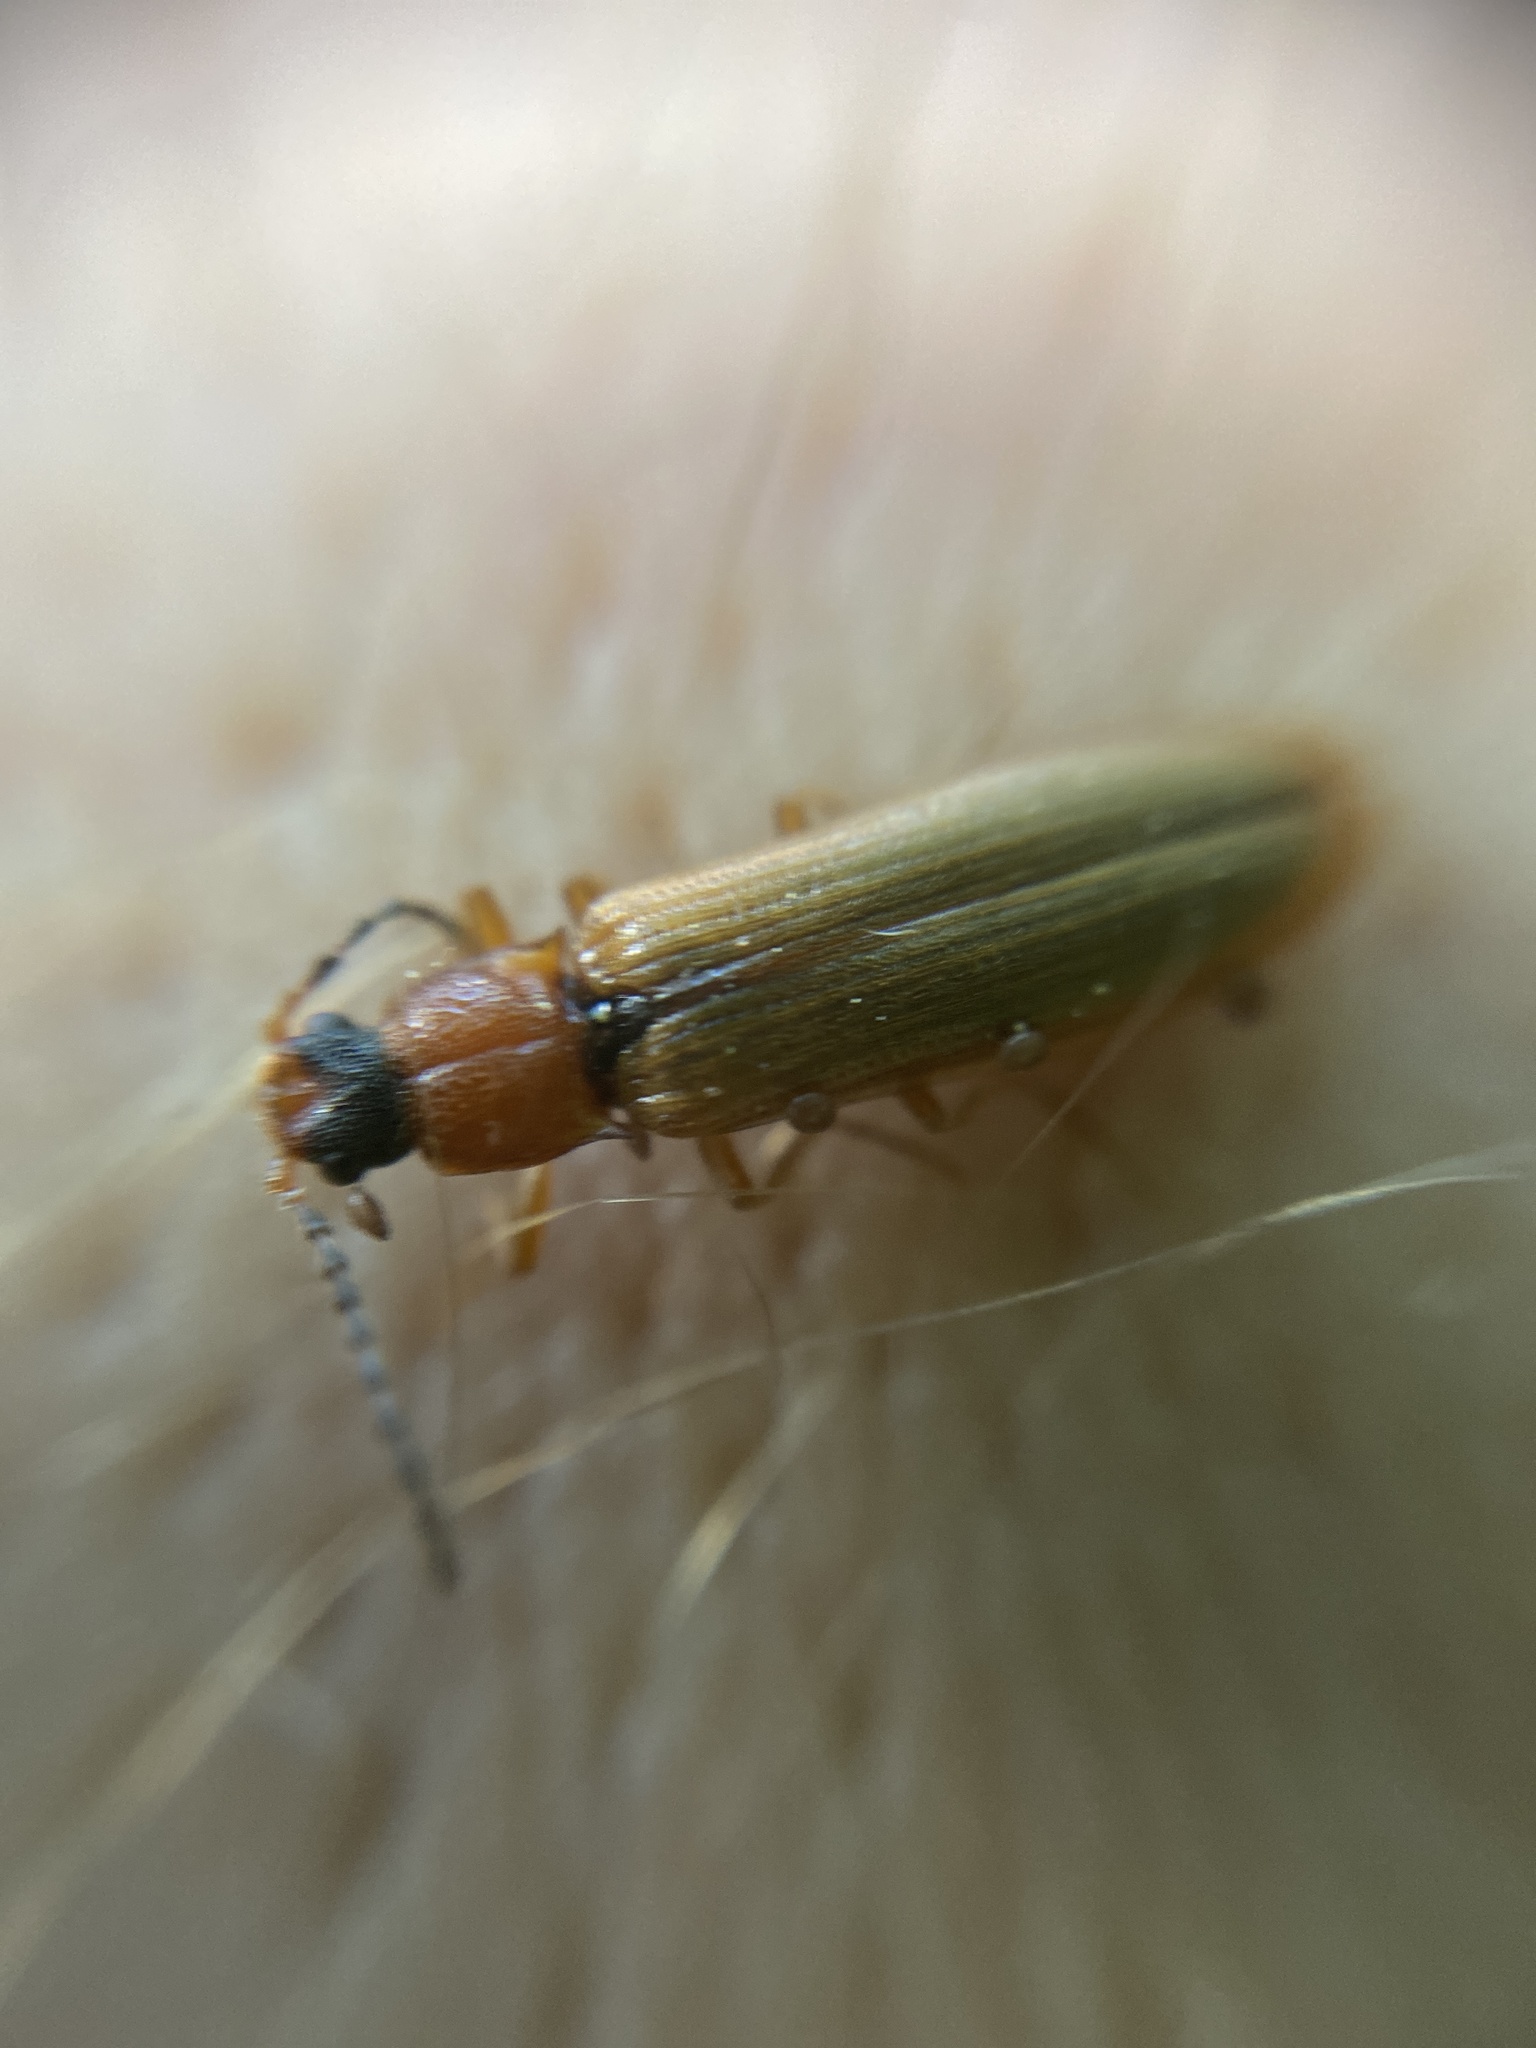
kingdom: Animalia
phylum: Arthropoda
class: Insecta
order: Coleoptera
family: Elateridae
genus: Denticollis
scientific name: Denticollis linearis
